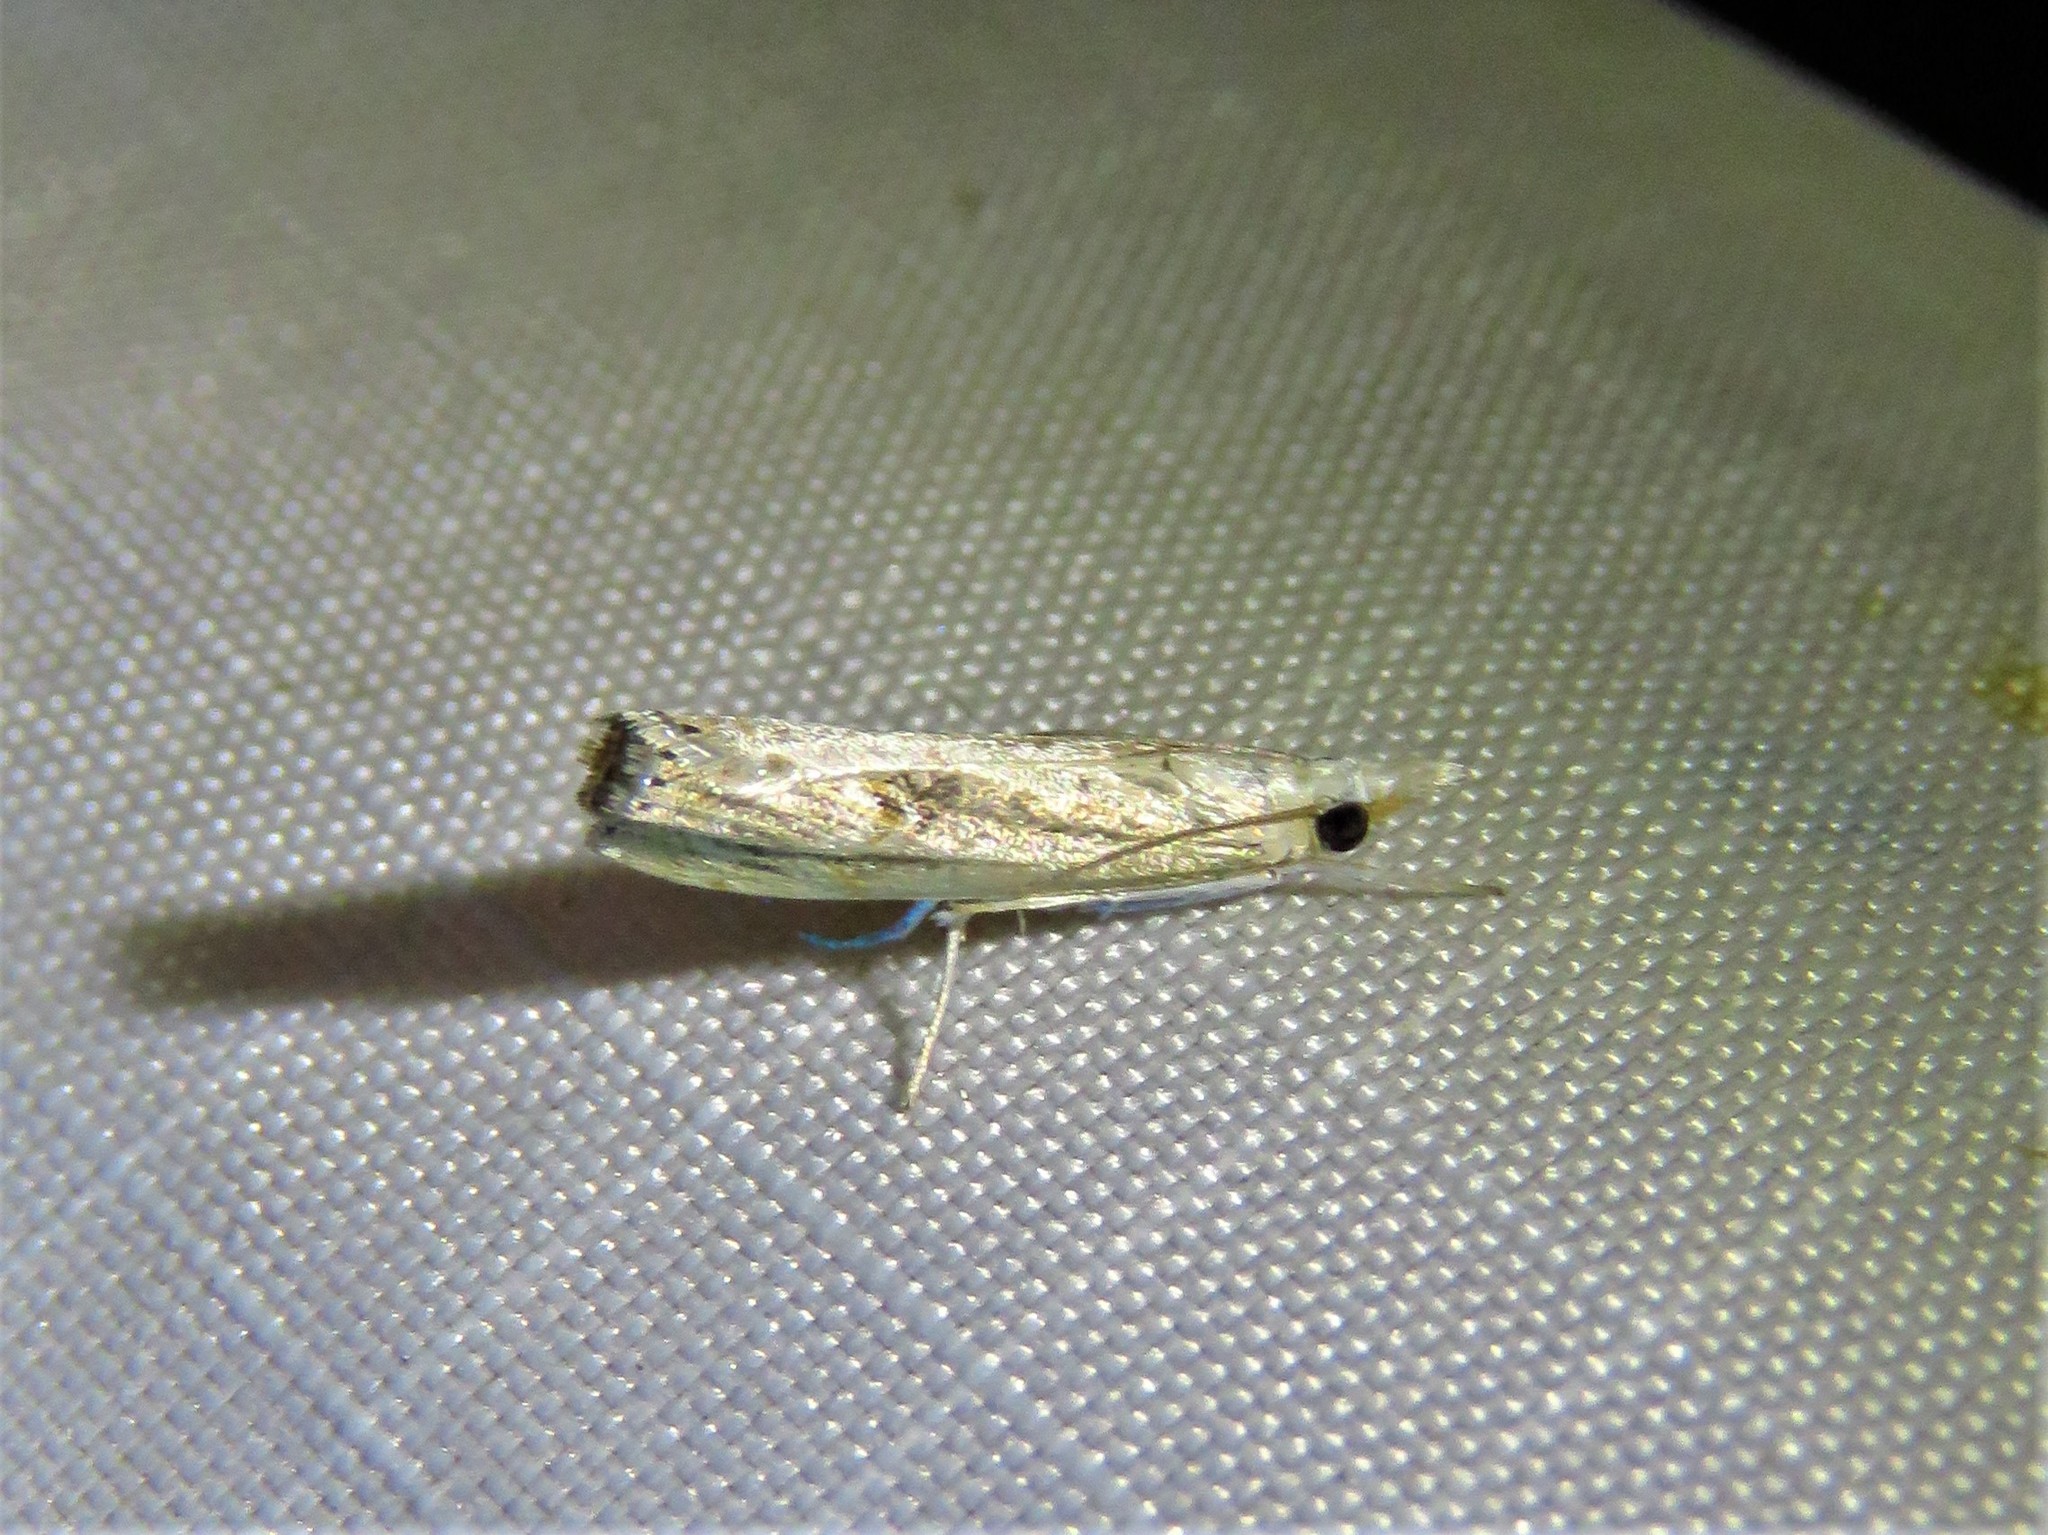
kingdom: Animalia
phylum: Arthropoda
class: Insecta
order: Lepidoptera
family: Crambidae
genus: Parapediasia
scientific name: Parapediasia teterellus
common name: Bluegrass webworm moth
